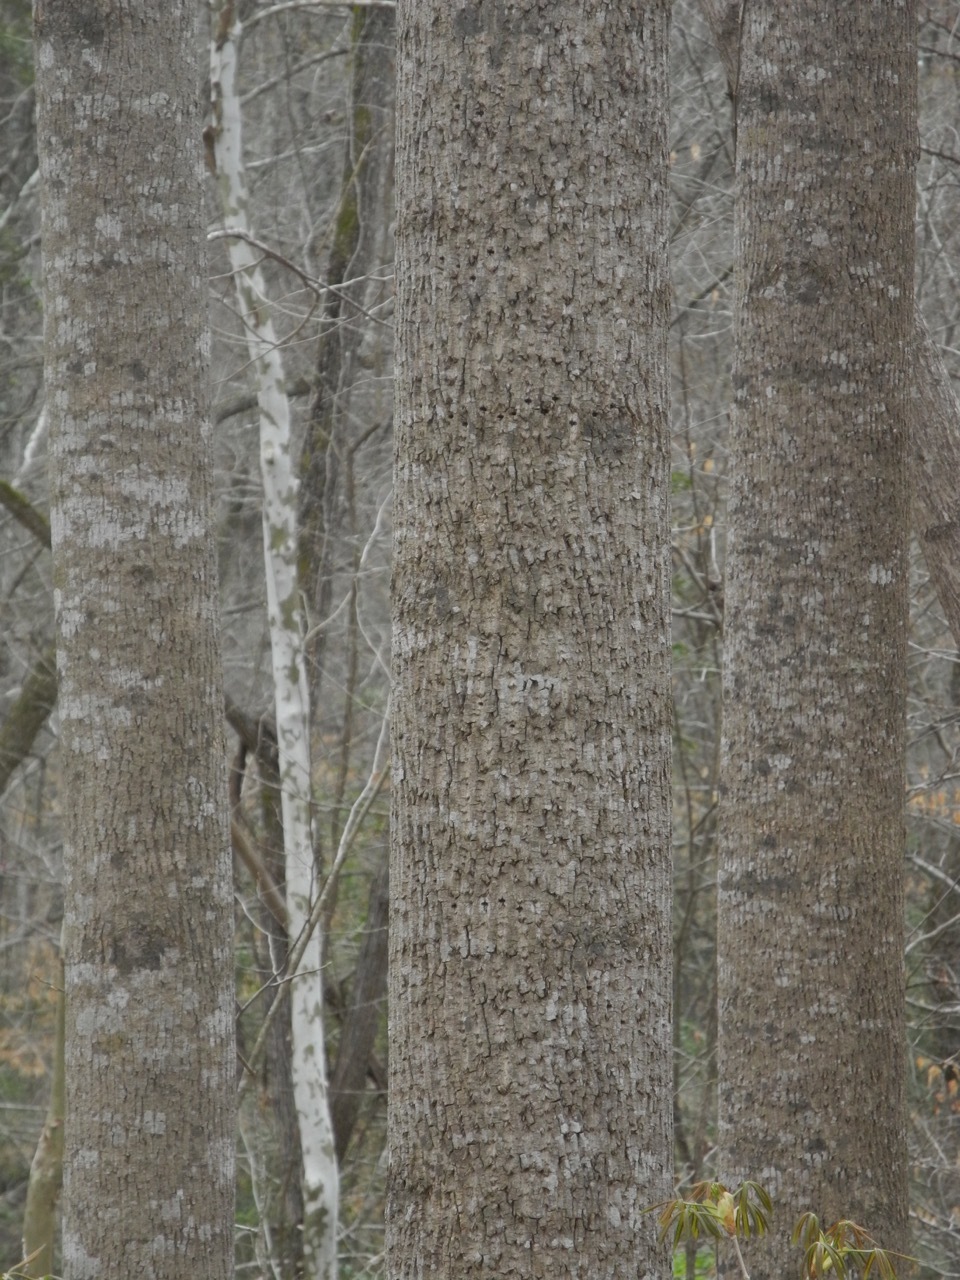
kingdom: Plantae
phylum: Tracheophyta
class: Magnoliopsida
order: Magnoliales
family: Magnoliaceae
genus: Liriodendron
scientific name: Liriodendron tulipifera
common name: Tulip tree
